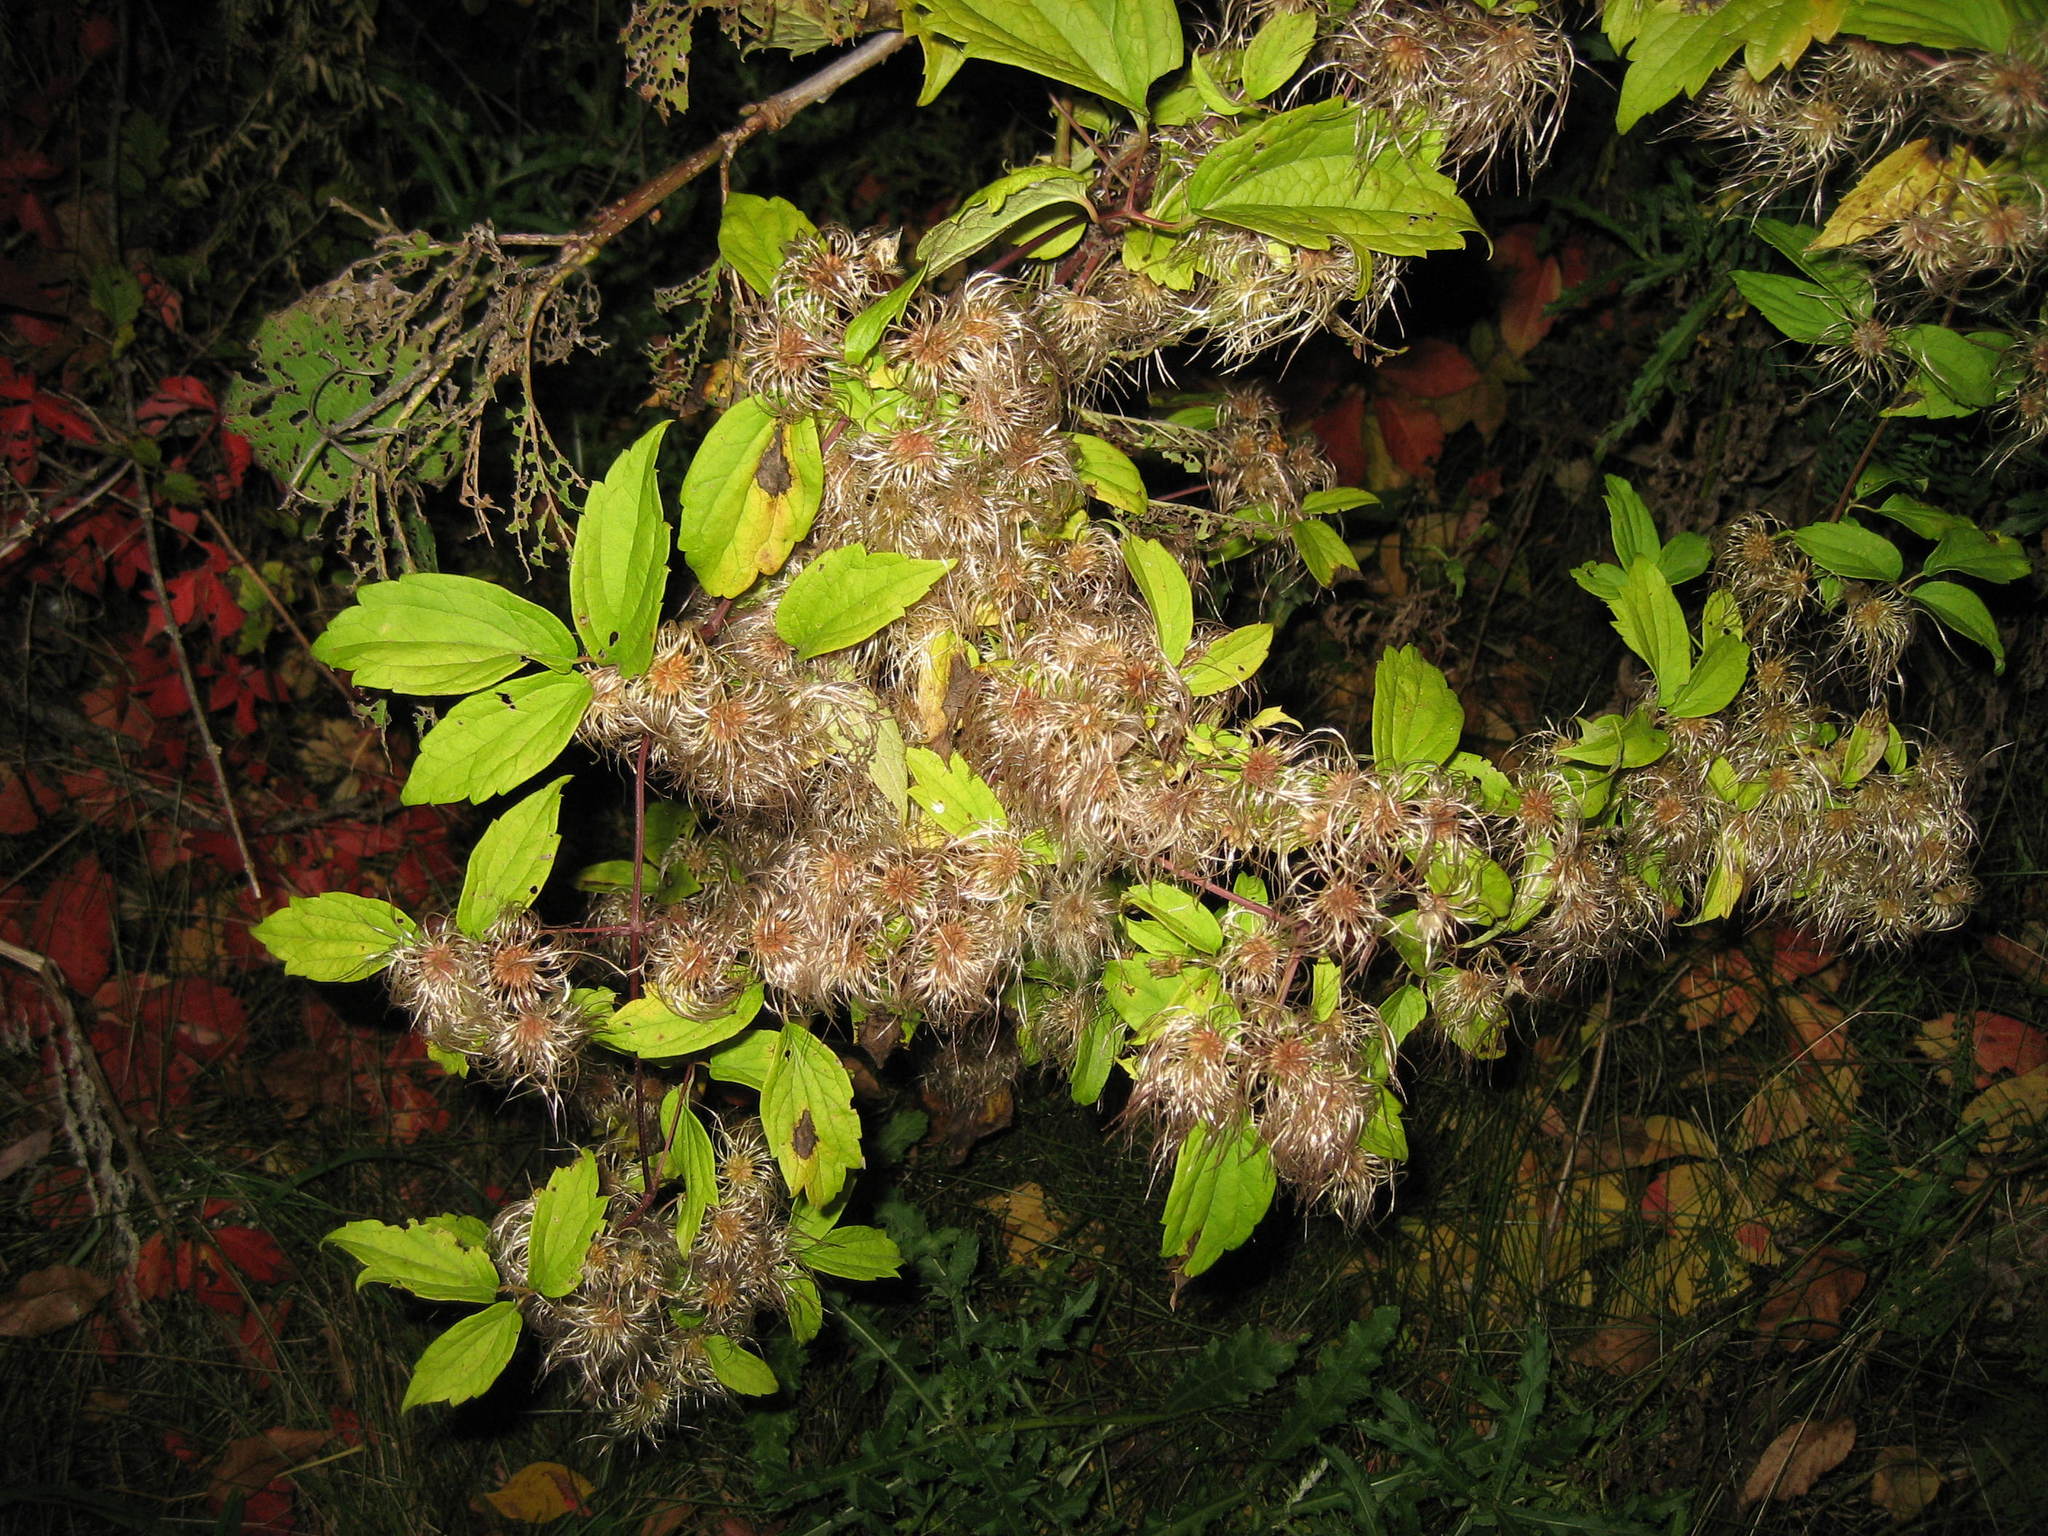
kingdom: Plantae
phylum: Tracheophyta
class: Magnoliopsida
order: Ranunculales
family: Ranunculaceae
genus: Clematis
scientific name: Clematis virginiana
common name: Virgin's-bower
